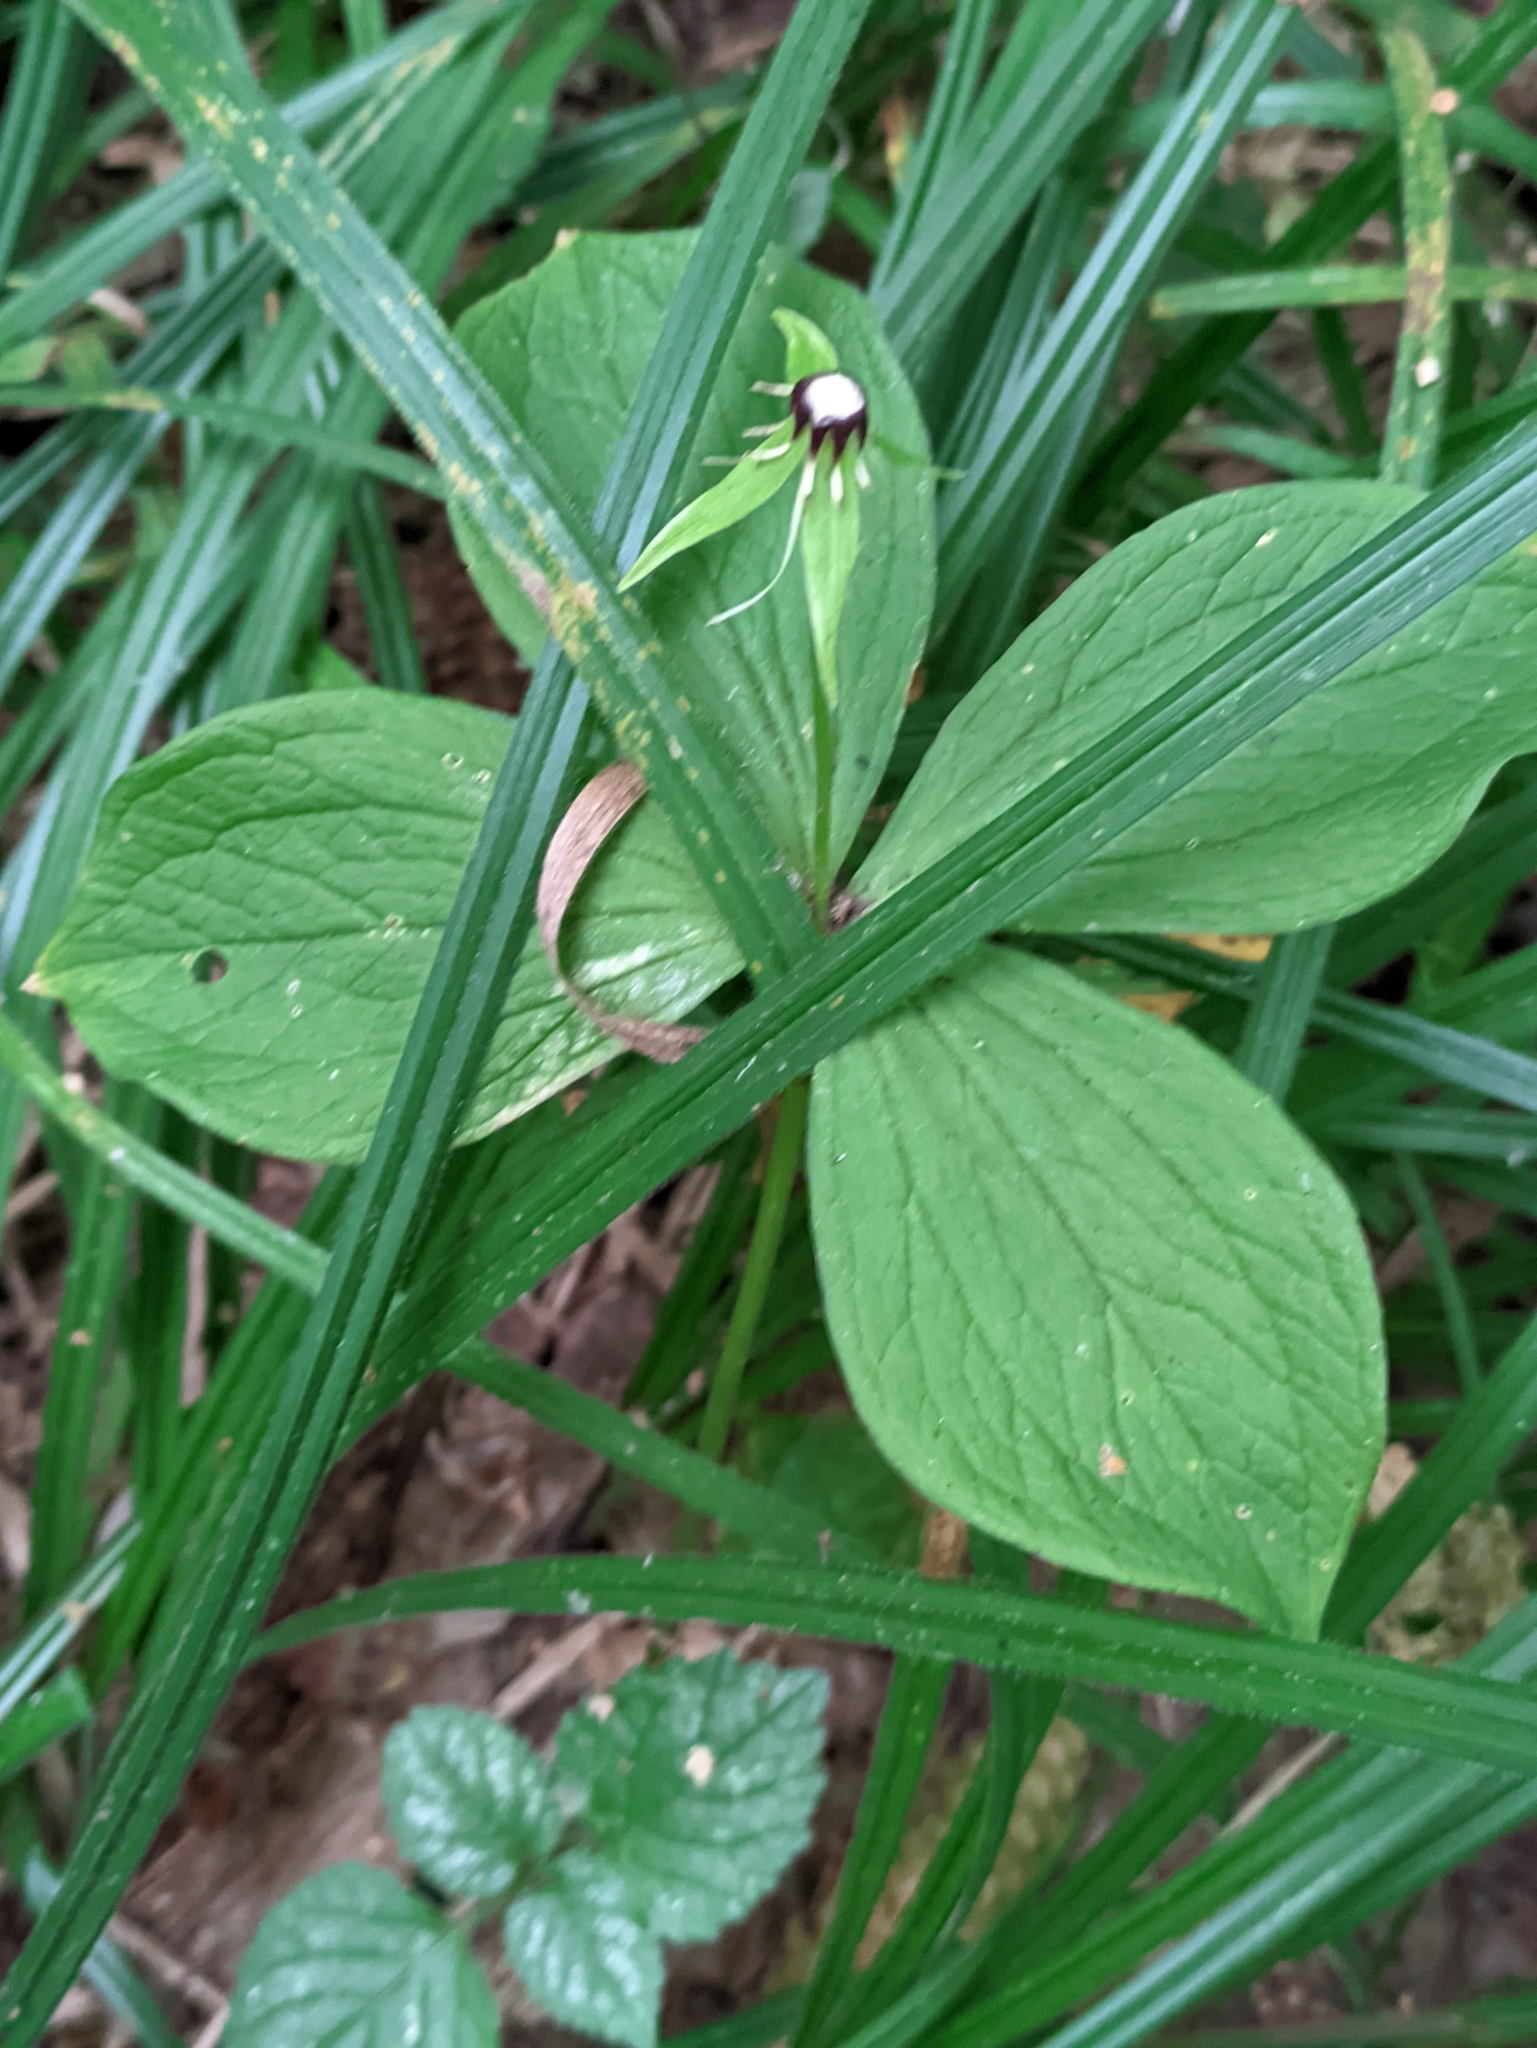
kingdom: Plantae
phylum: Tracheophyta
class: Liliopsida
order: Liliales
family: Melanthiaceae
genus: Paris
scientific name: Paris quadrifolia
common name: Herb-paris
